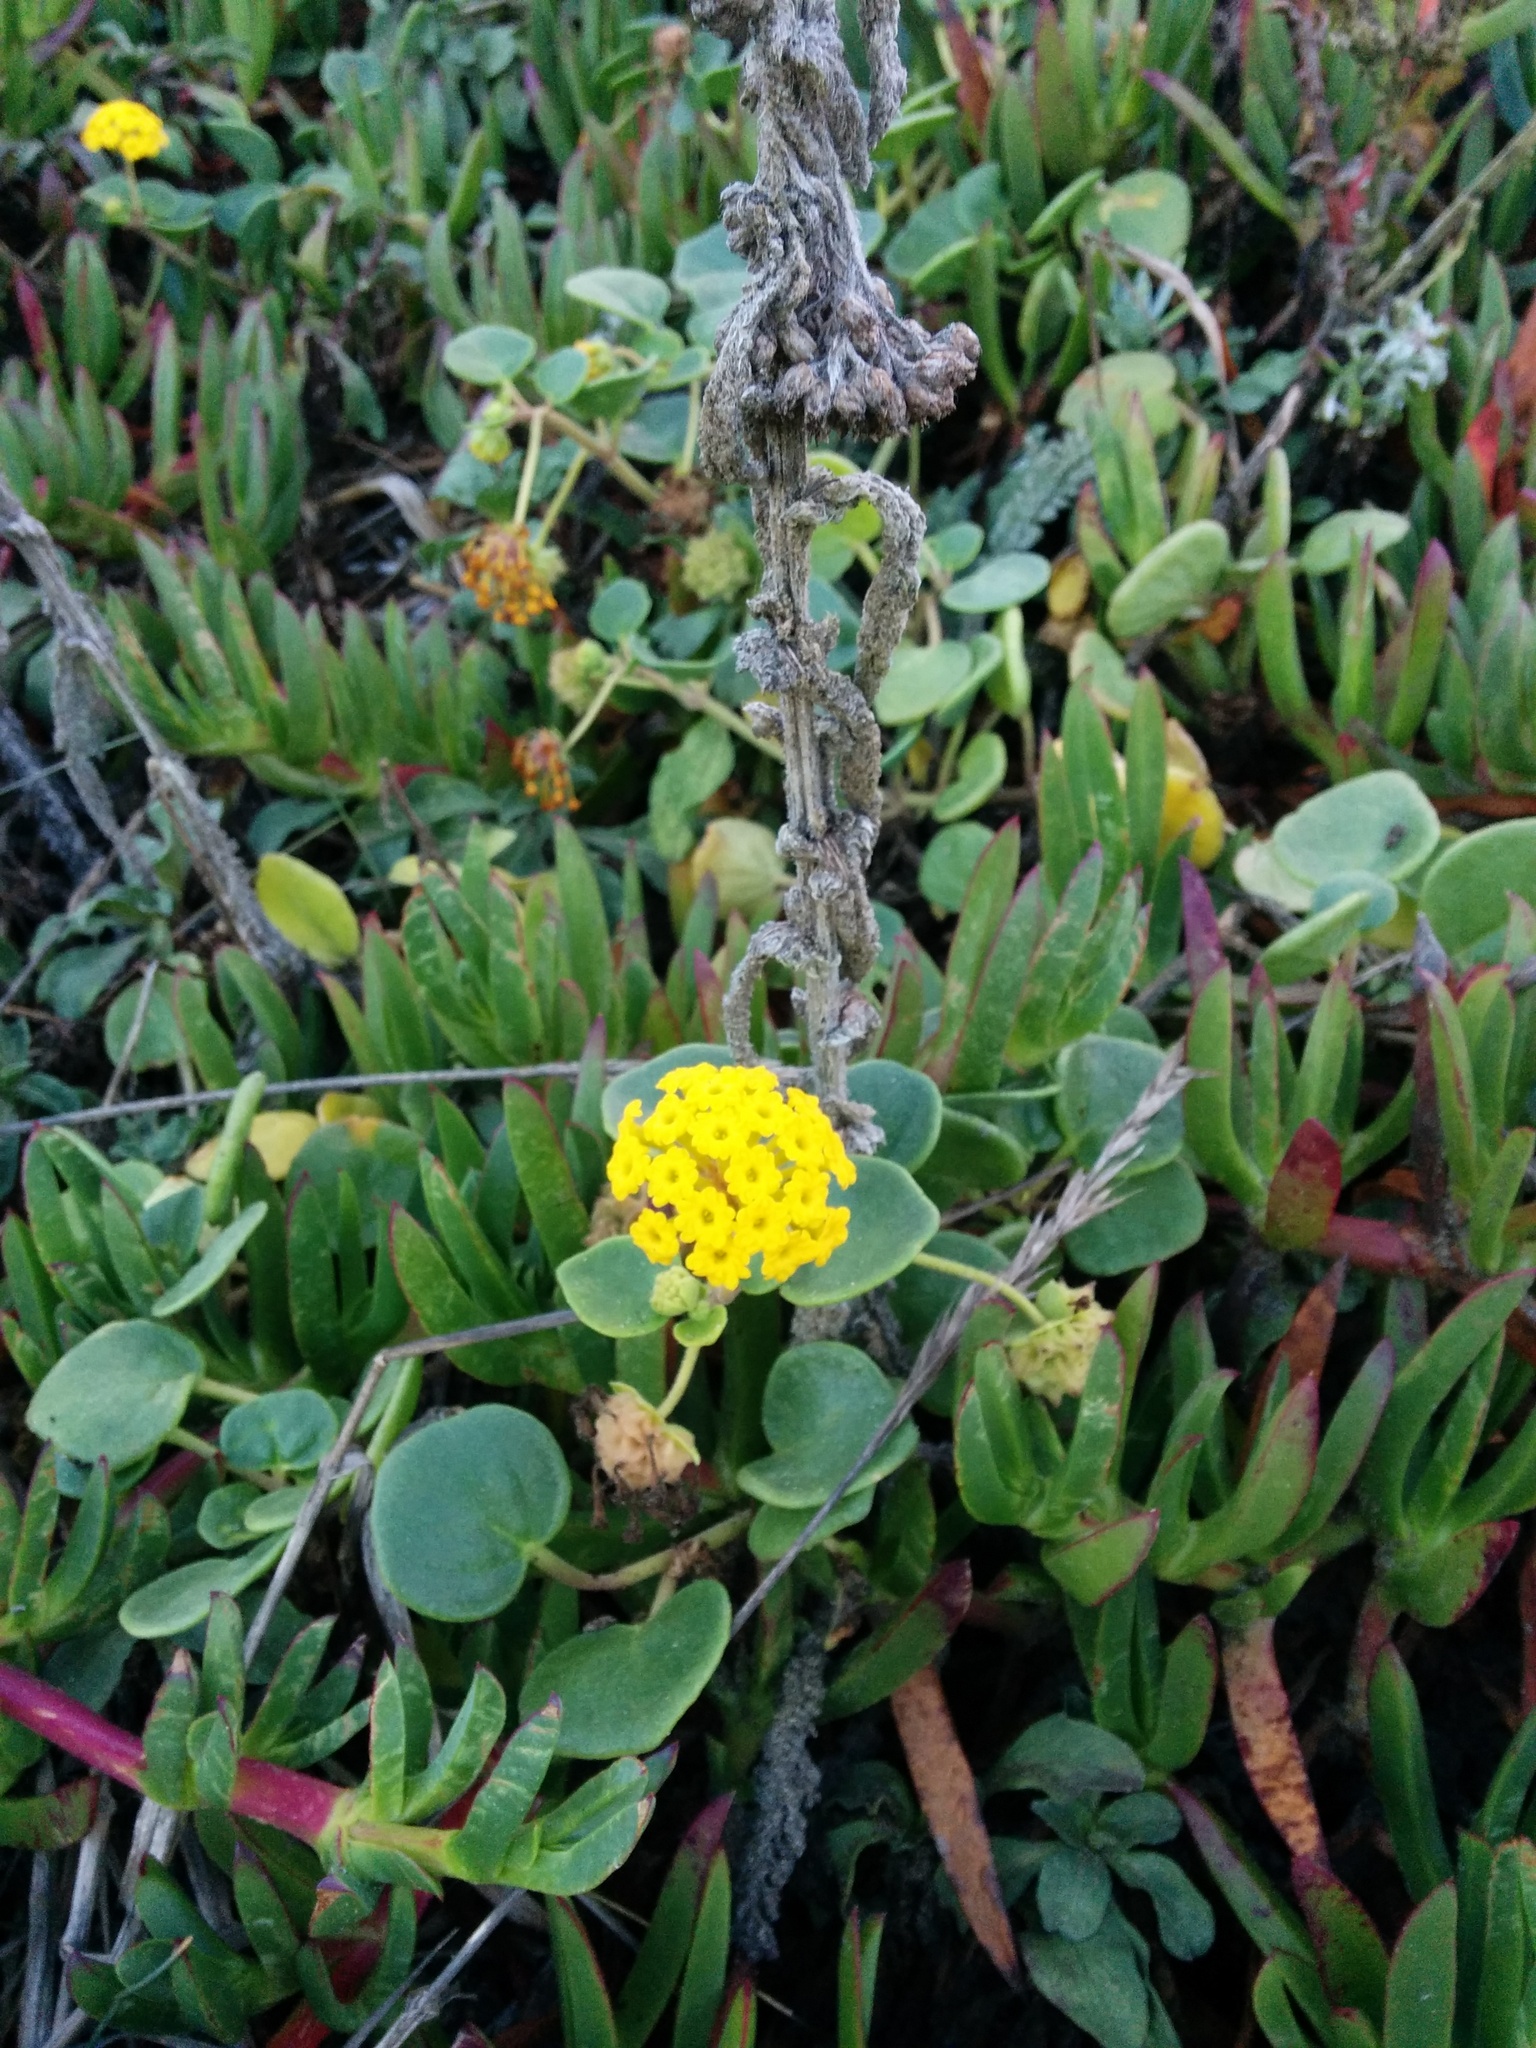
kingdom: Plantae
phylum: Tracheophyta
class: Magnoliopsida
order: Caryophyllales
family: Nyctaginaceae
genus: Abronia
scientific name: Abronia latifolia
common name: Yellow sand-verbena
